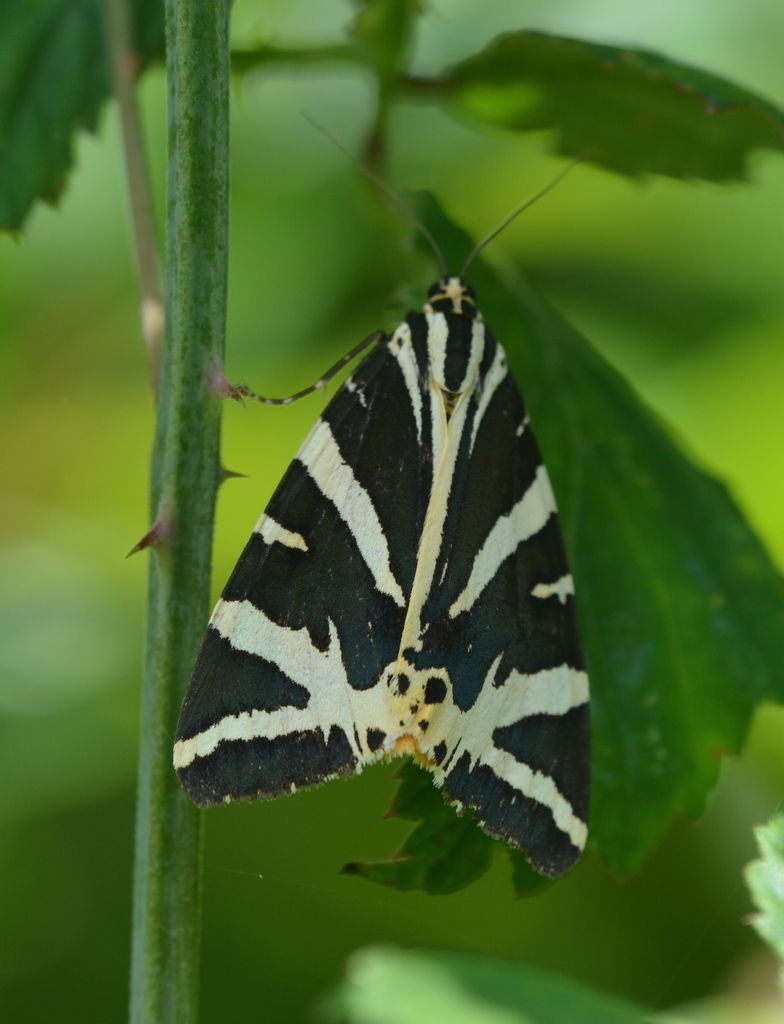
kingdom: Animalia
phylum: Arthropoda
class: Insecta
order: Lepidoptera
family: Erebidae
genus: Euplagia
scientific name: Euplagia quadripunctaria
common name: Jersey tiger
